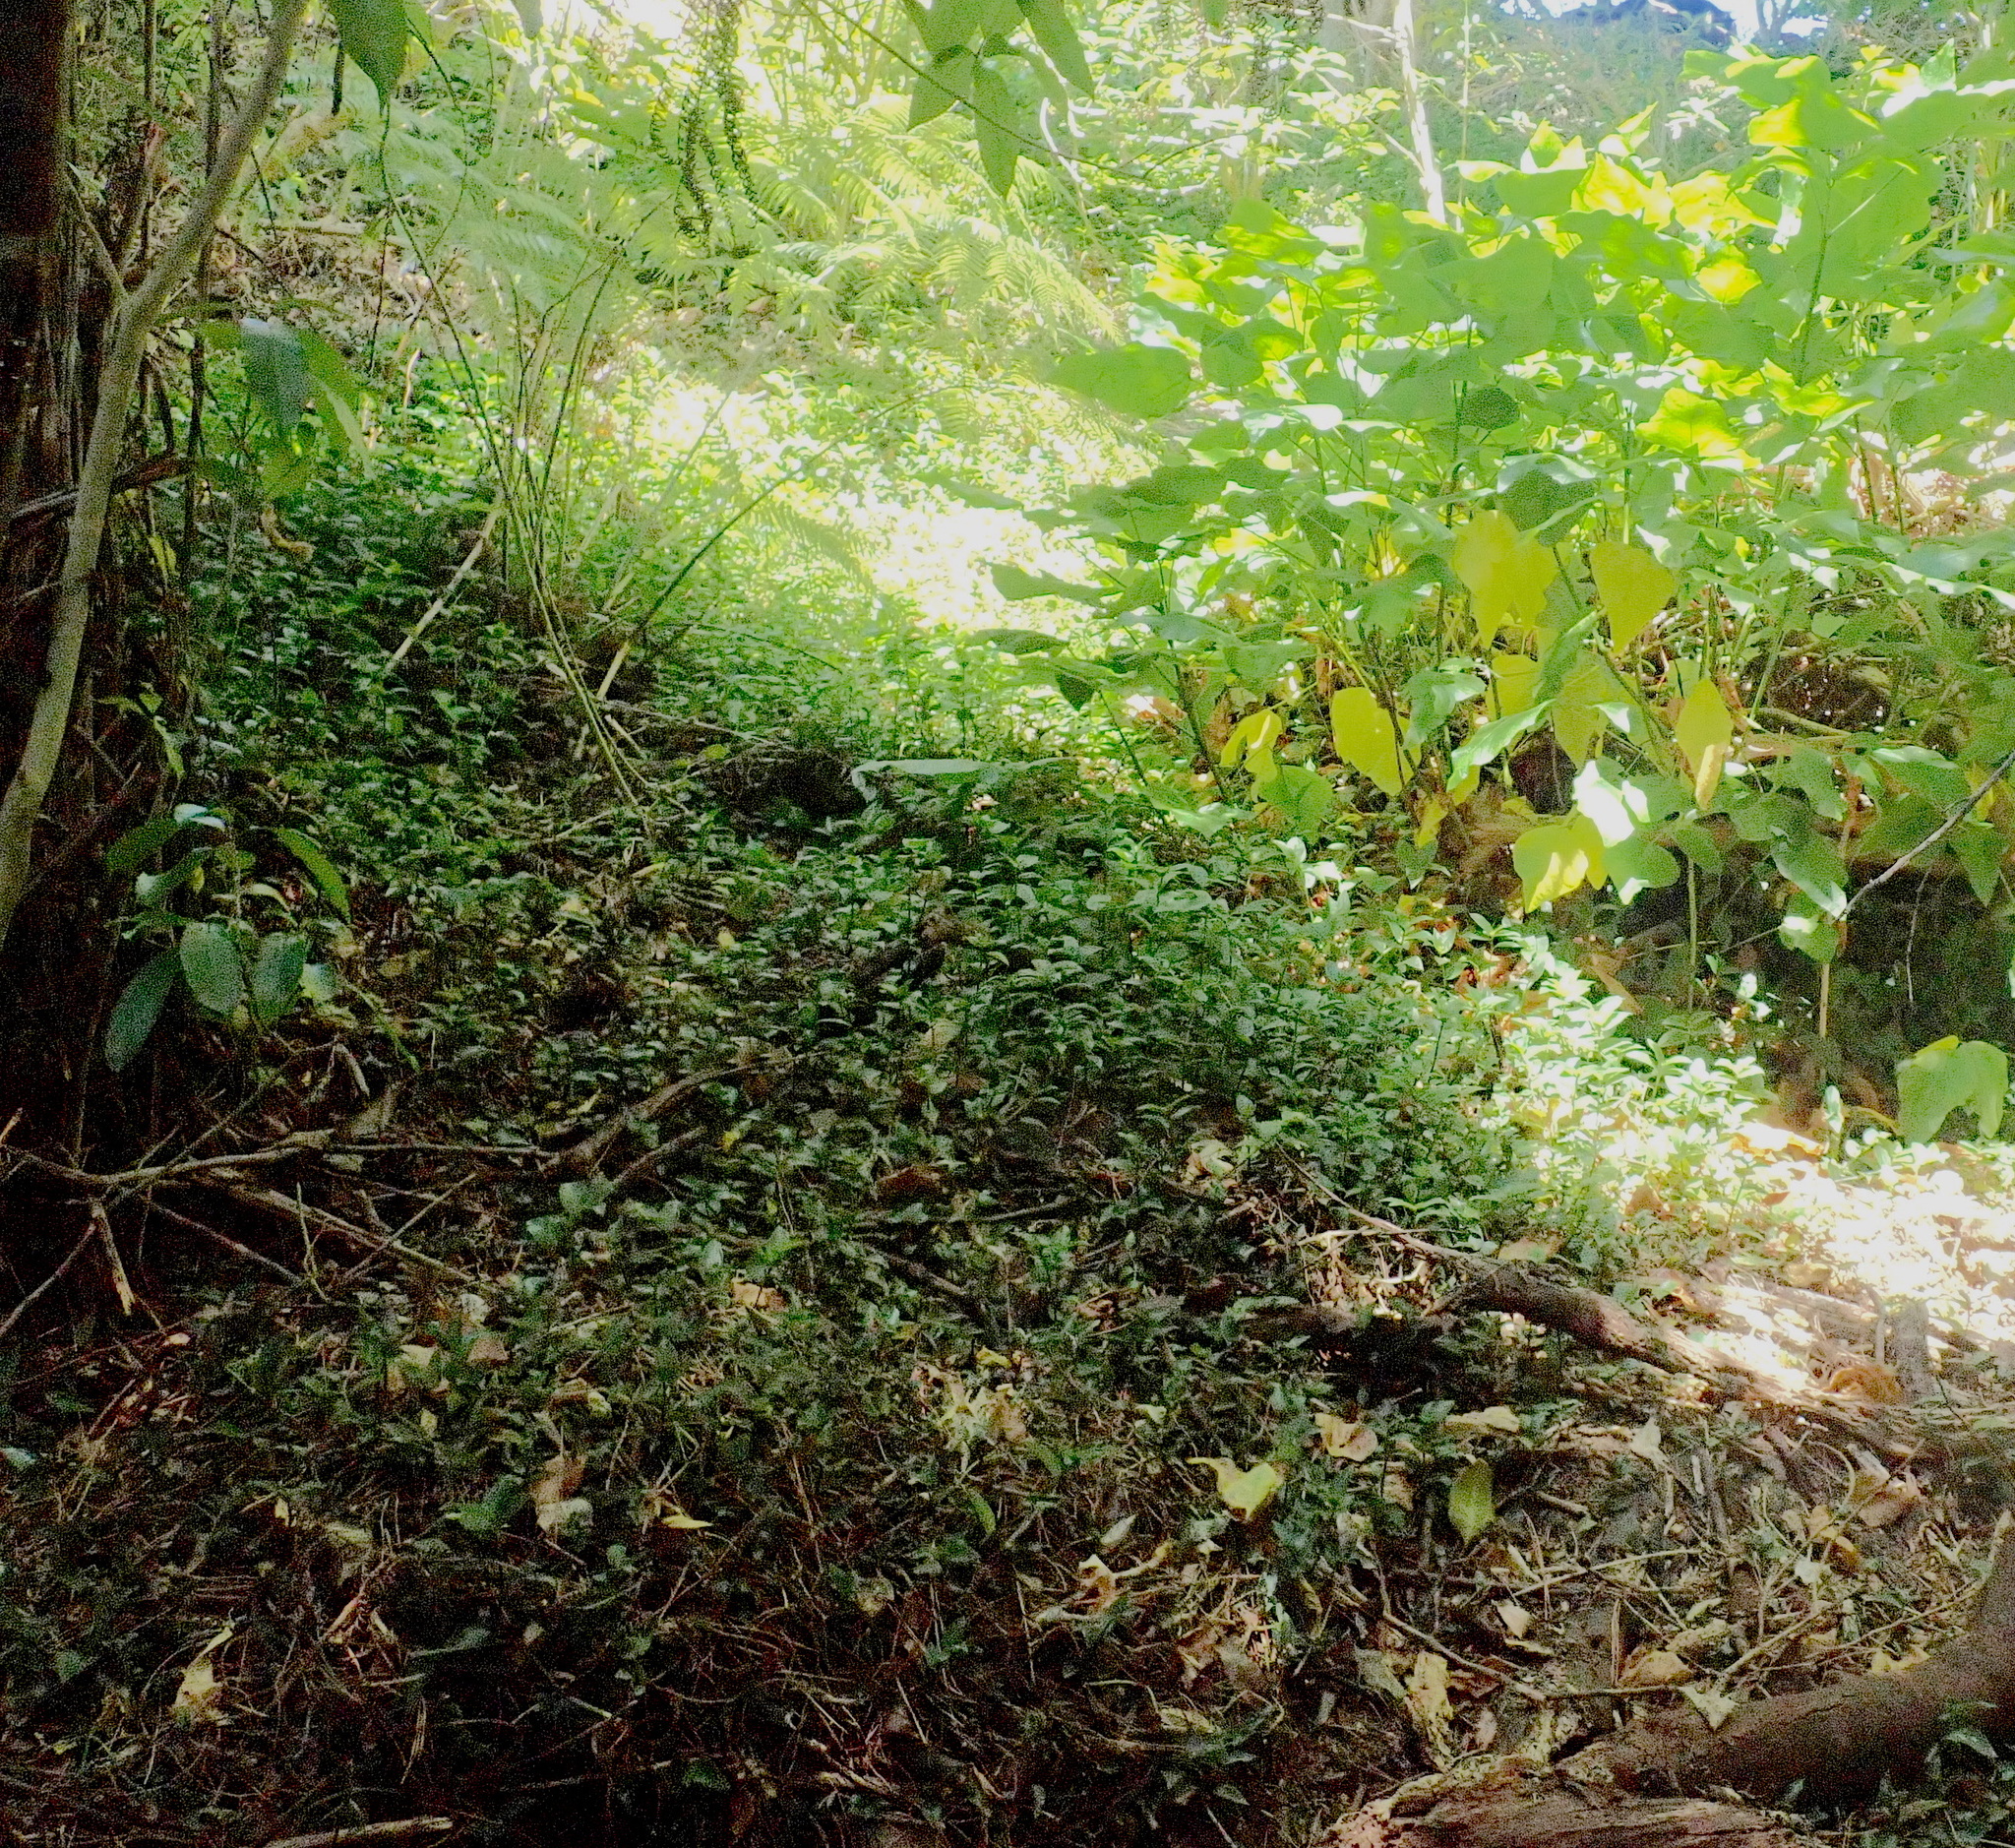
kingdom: Plantae
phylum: Tracheophyta
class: Liliopsida
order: Commelinales
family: Commelinaceae
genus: Tradescantia
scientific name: Tradescantia fluminensis
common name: Wandering-jew
